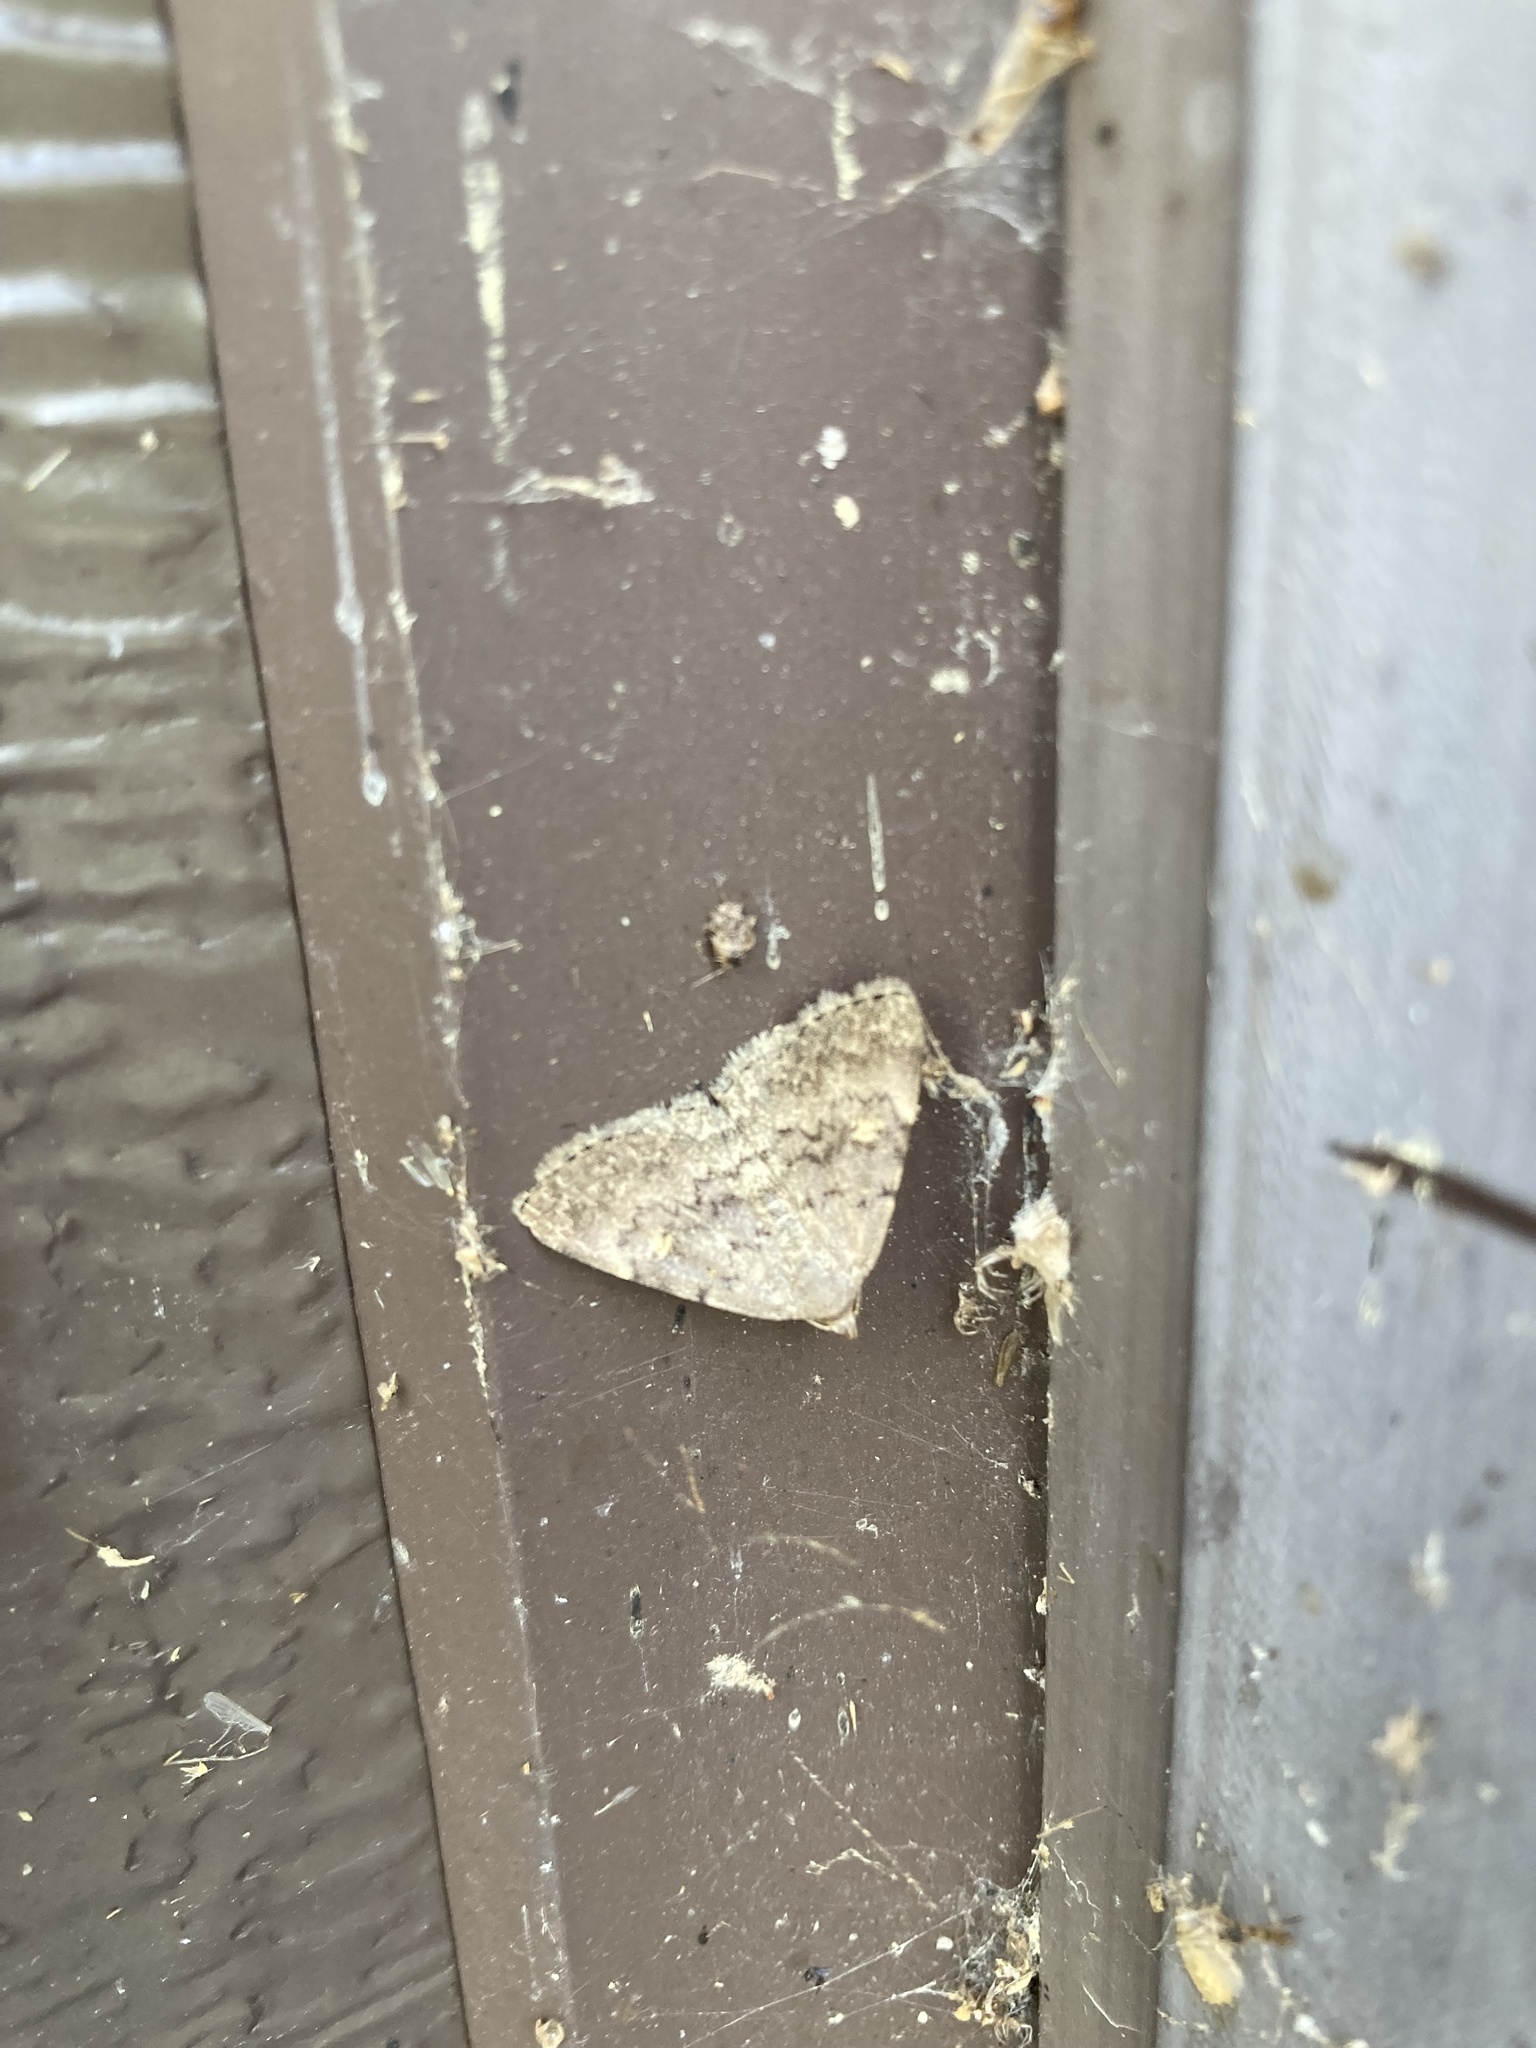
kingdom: Animalia
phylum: Arthropoda
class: Insecta
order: Lepidoptera
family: Erebidae
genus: Idia
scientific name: Idia aemula
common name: Common idia moth
